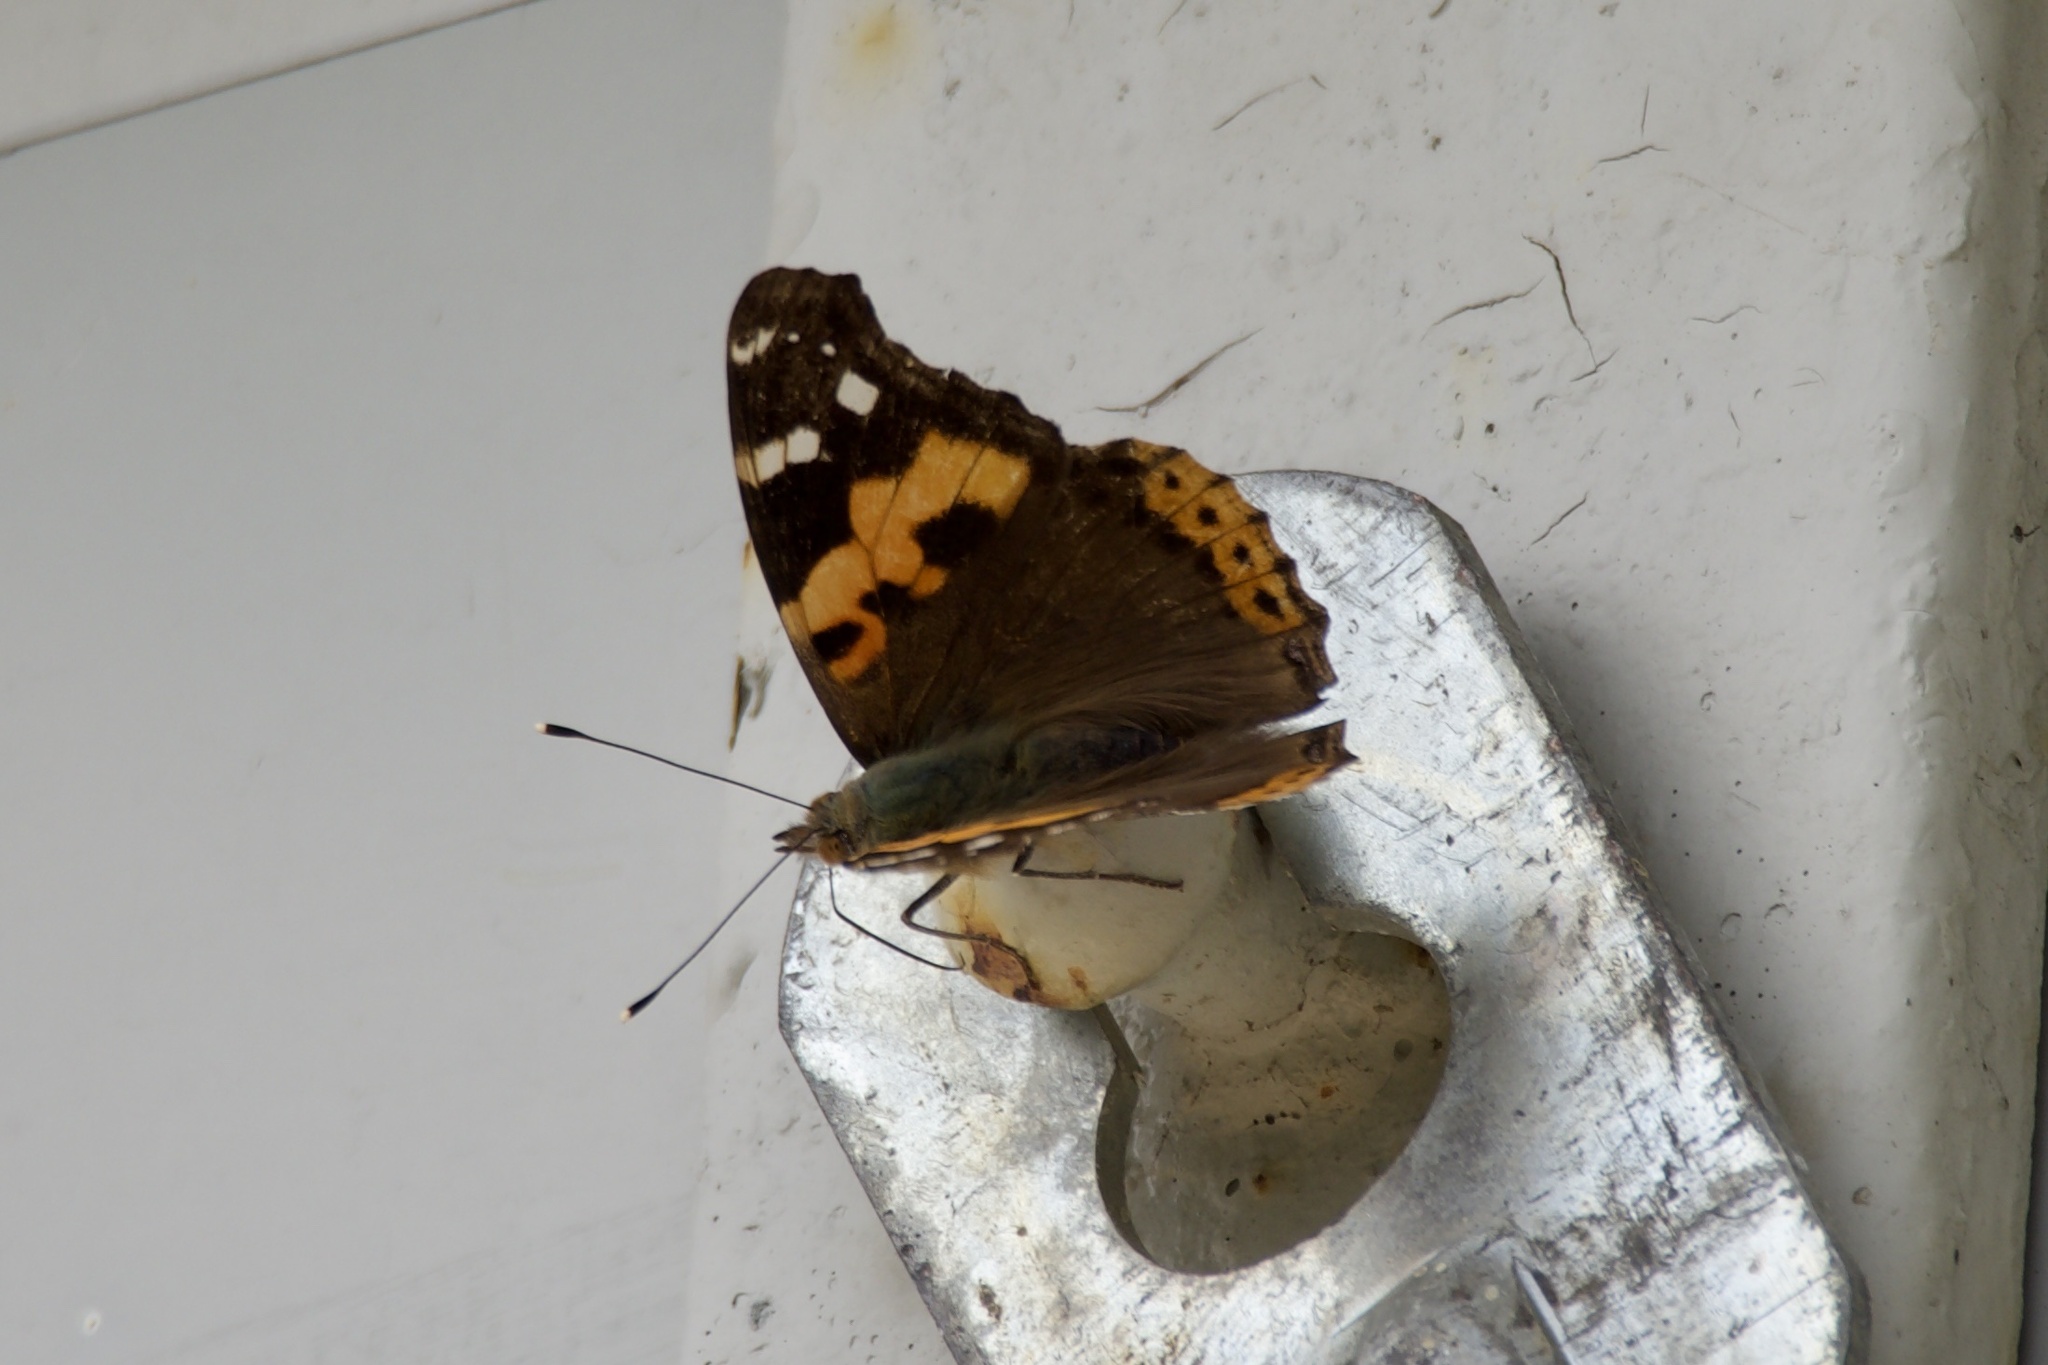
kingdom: Animalia
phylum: Arthropoda
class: Insecta
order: Lepidoptera
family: Nymphalidae
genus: Vanessa
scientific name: Vanessa indica
